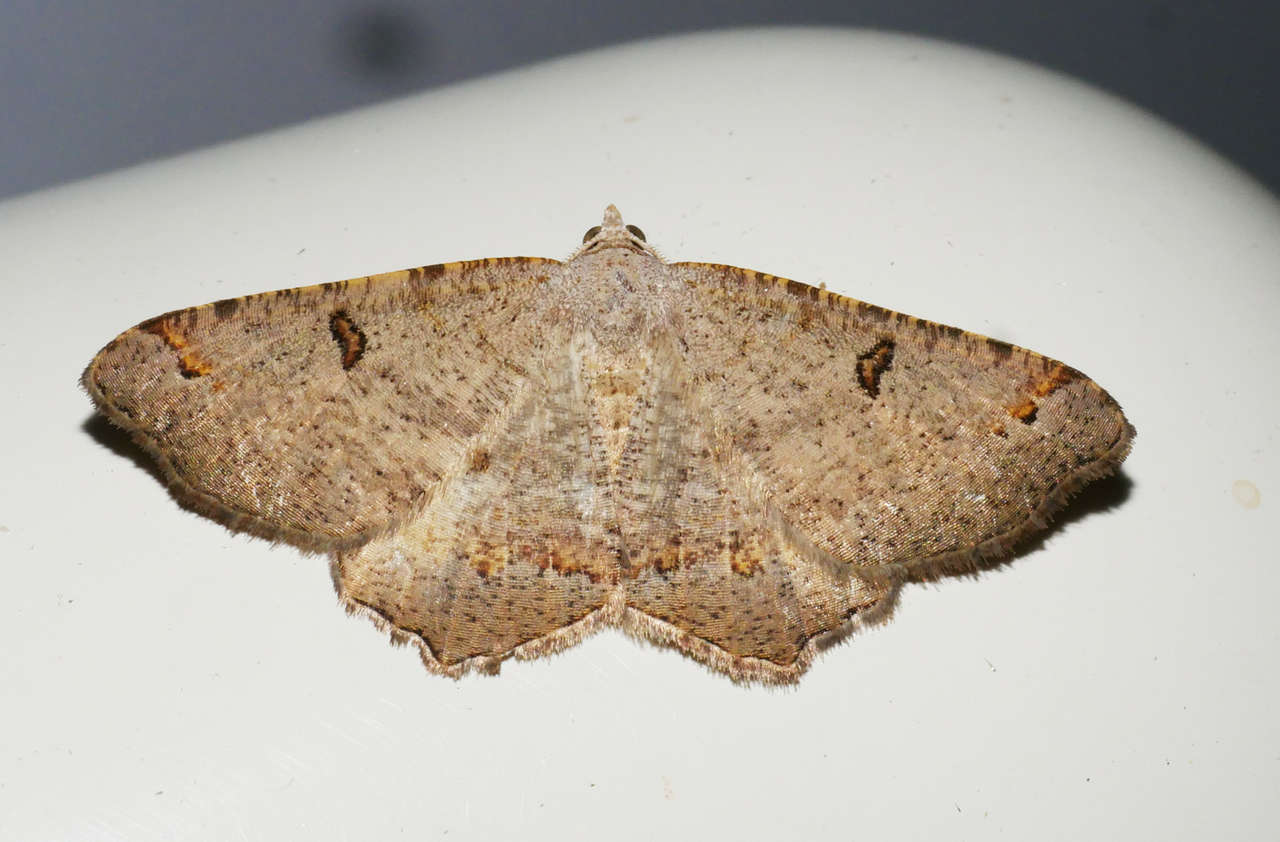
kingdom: Animalia
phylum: Arthropoda
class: Insecta
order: Lepidoptera
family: Geometridae
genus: Dissomorphia
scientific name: Dissomorphia australiaria
